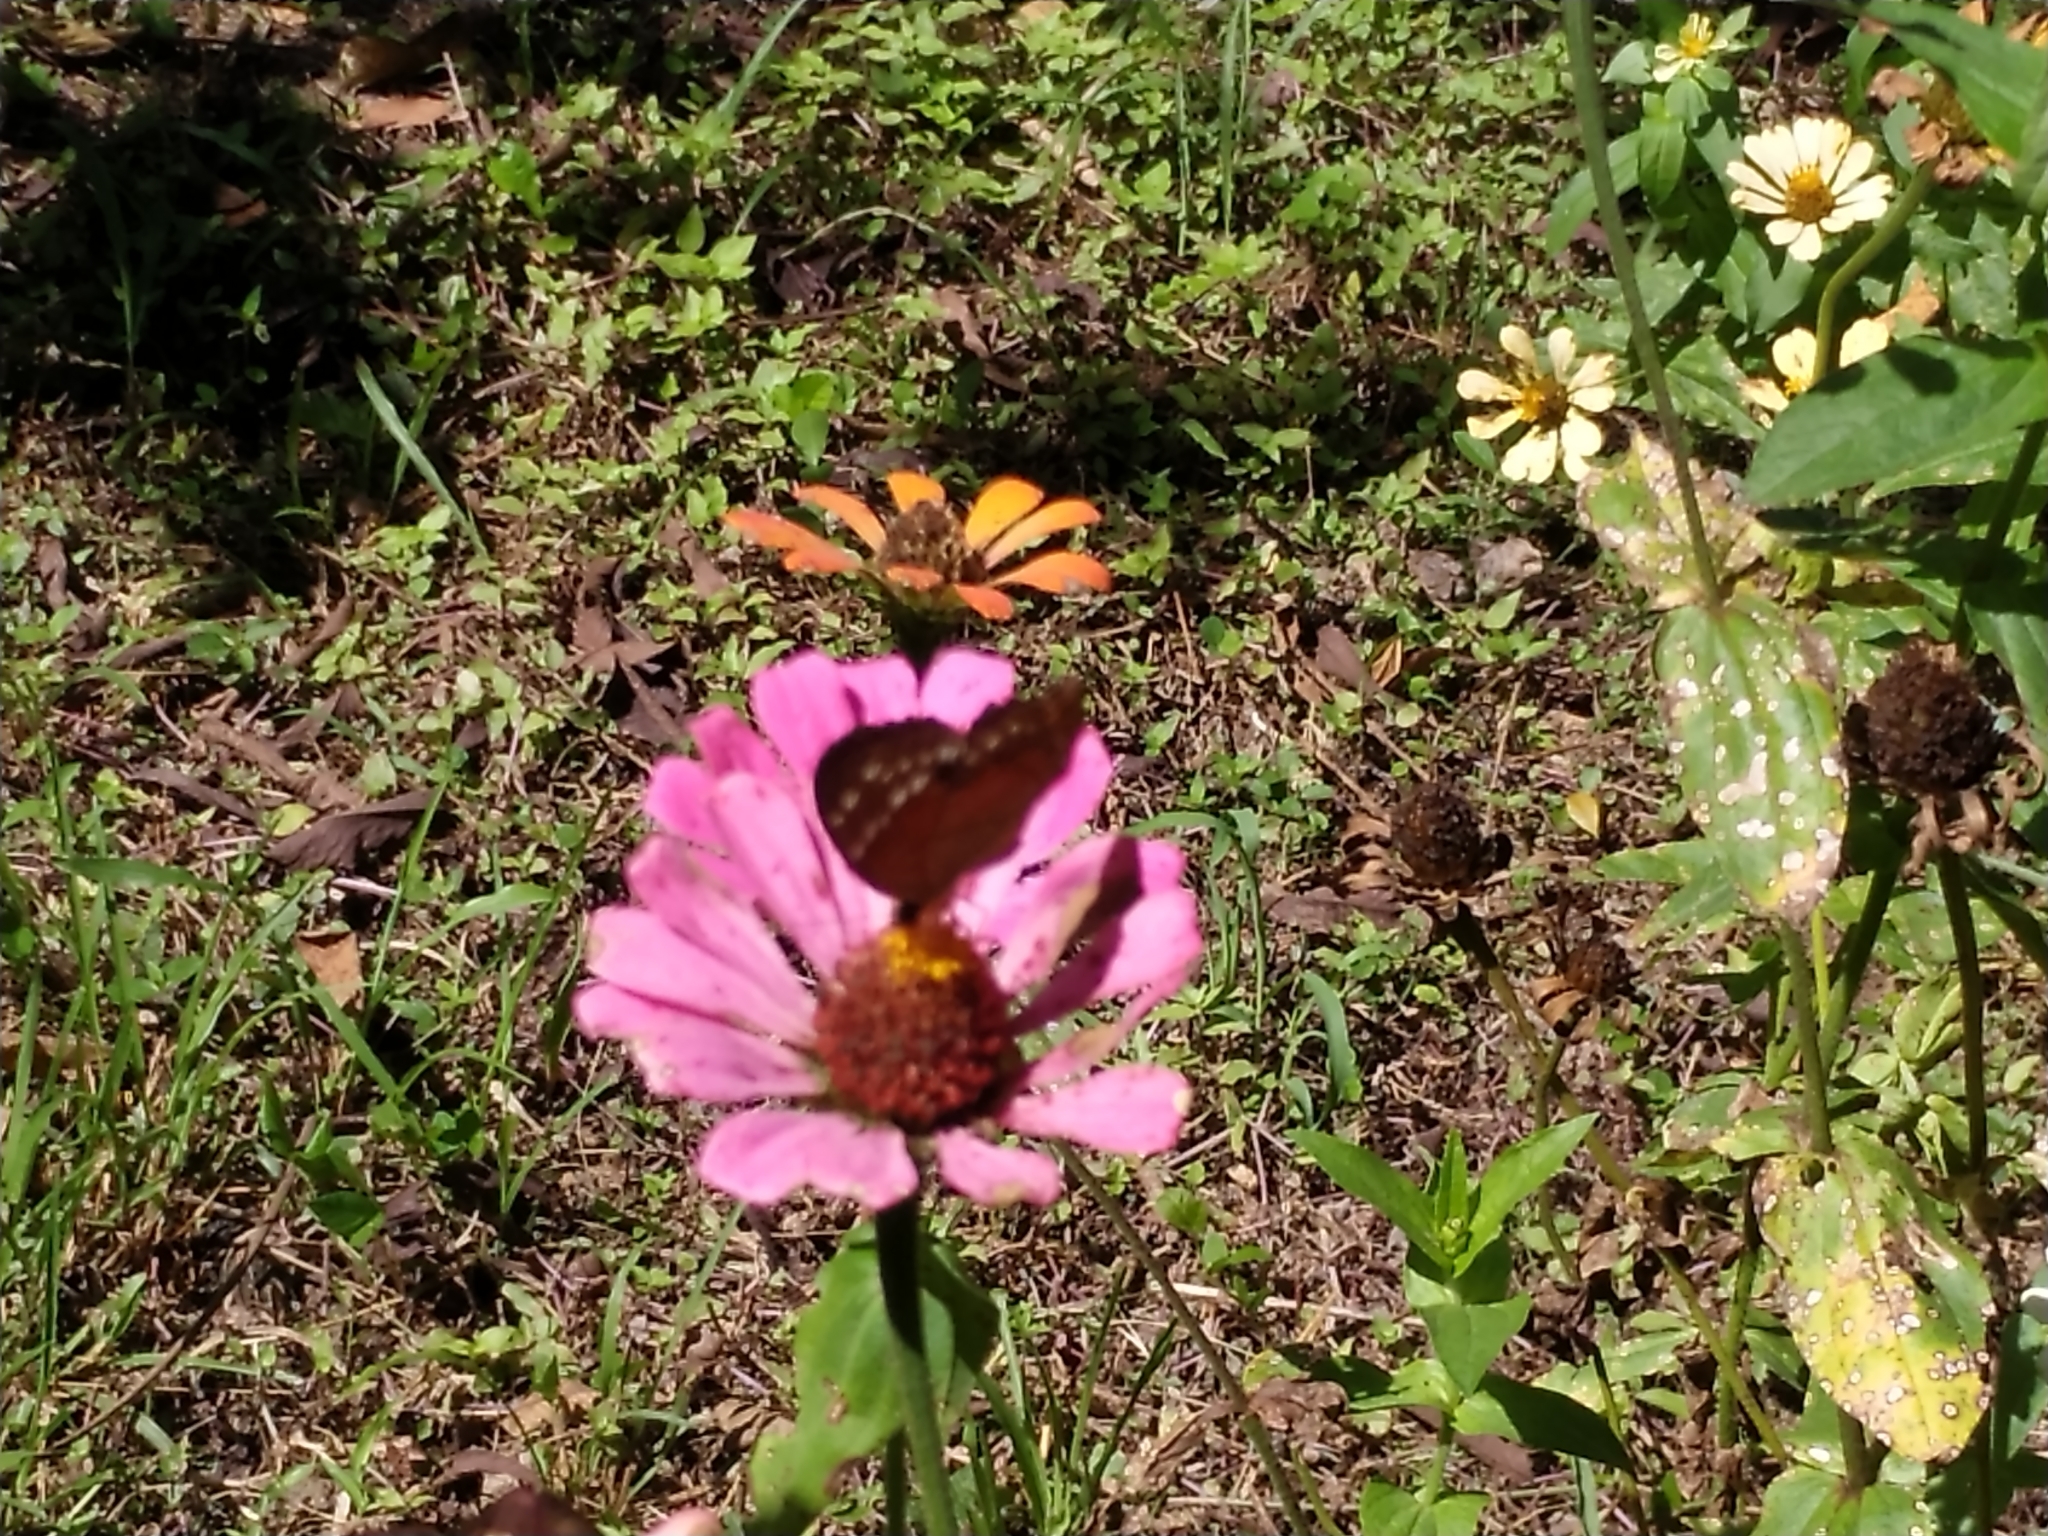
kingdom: Animalia
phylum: Arthropoda
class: Insecta
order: Lepidoptera
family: Nymphalidae
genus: Anartia
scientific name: Anartia amathea
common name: Red peacock
